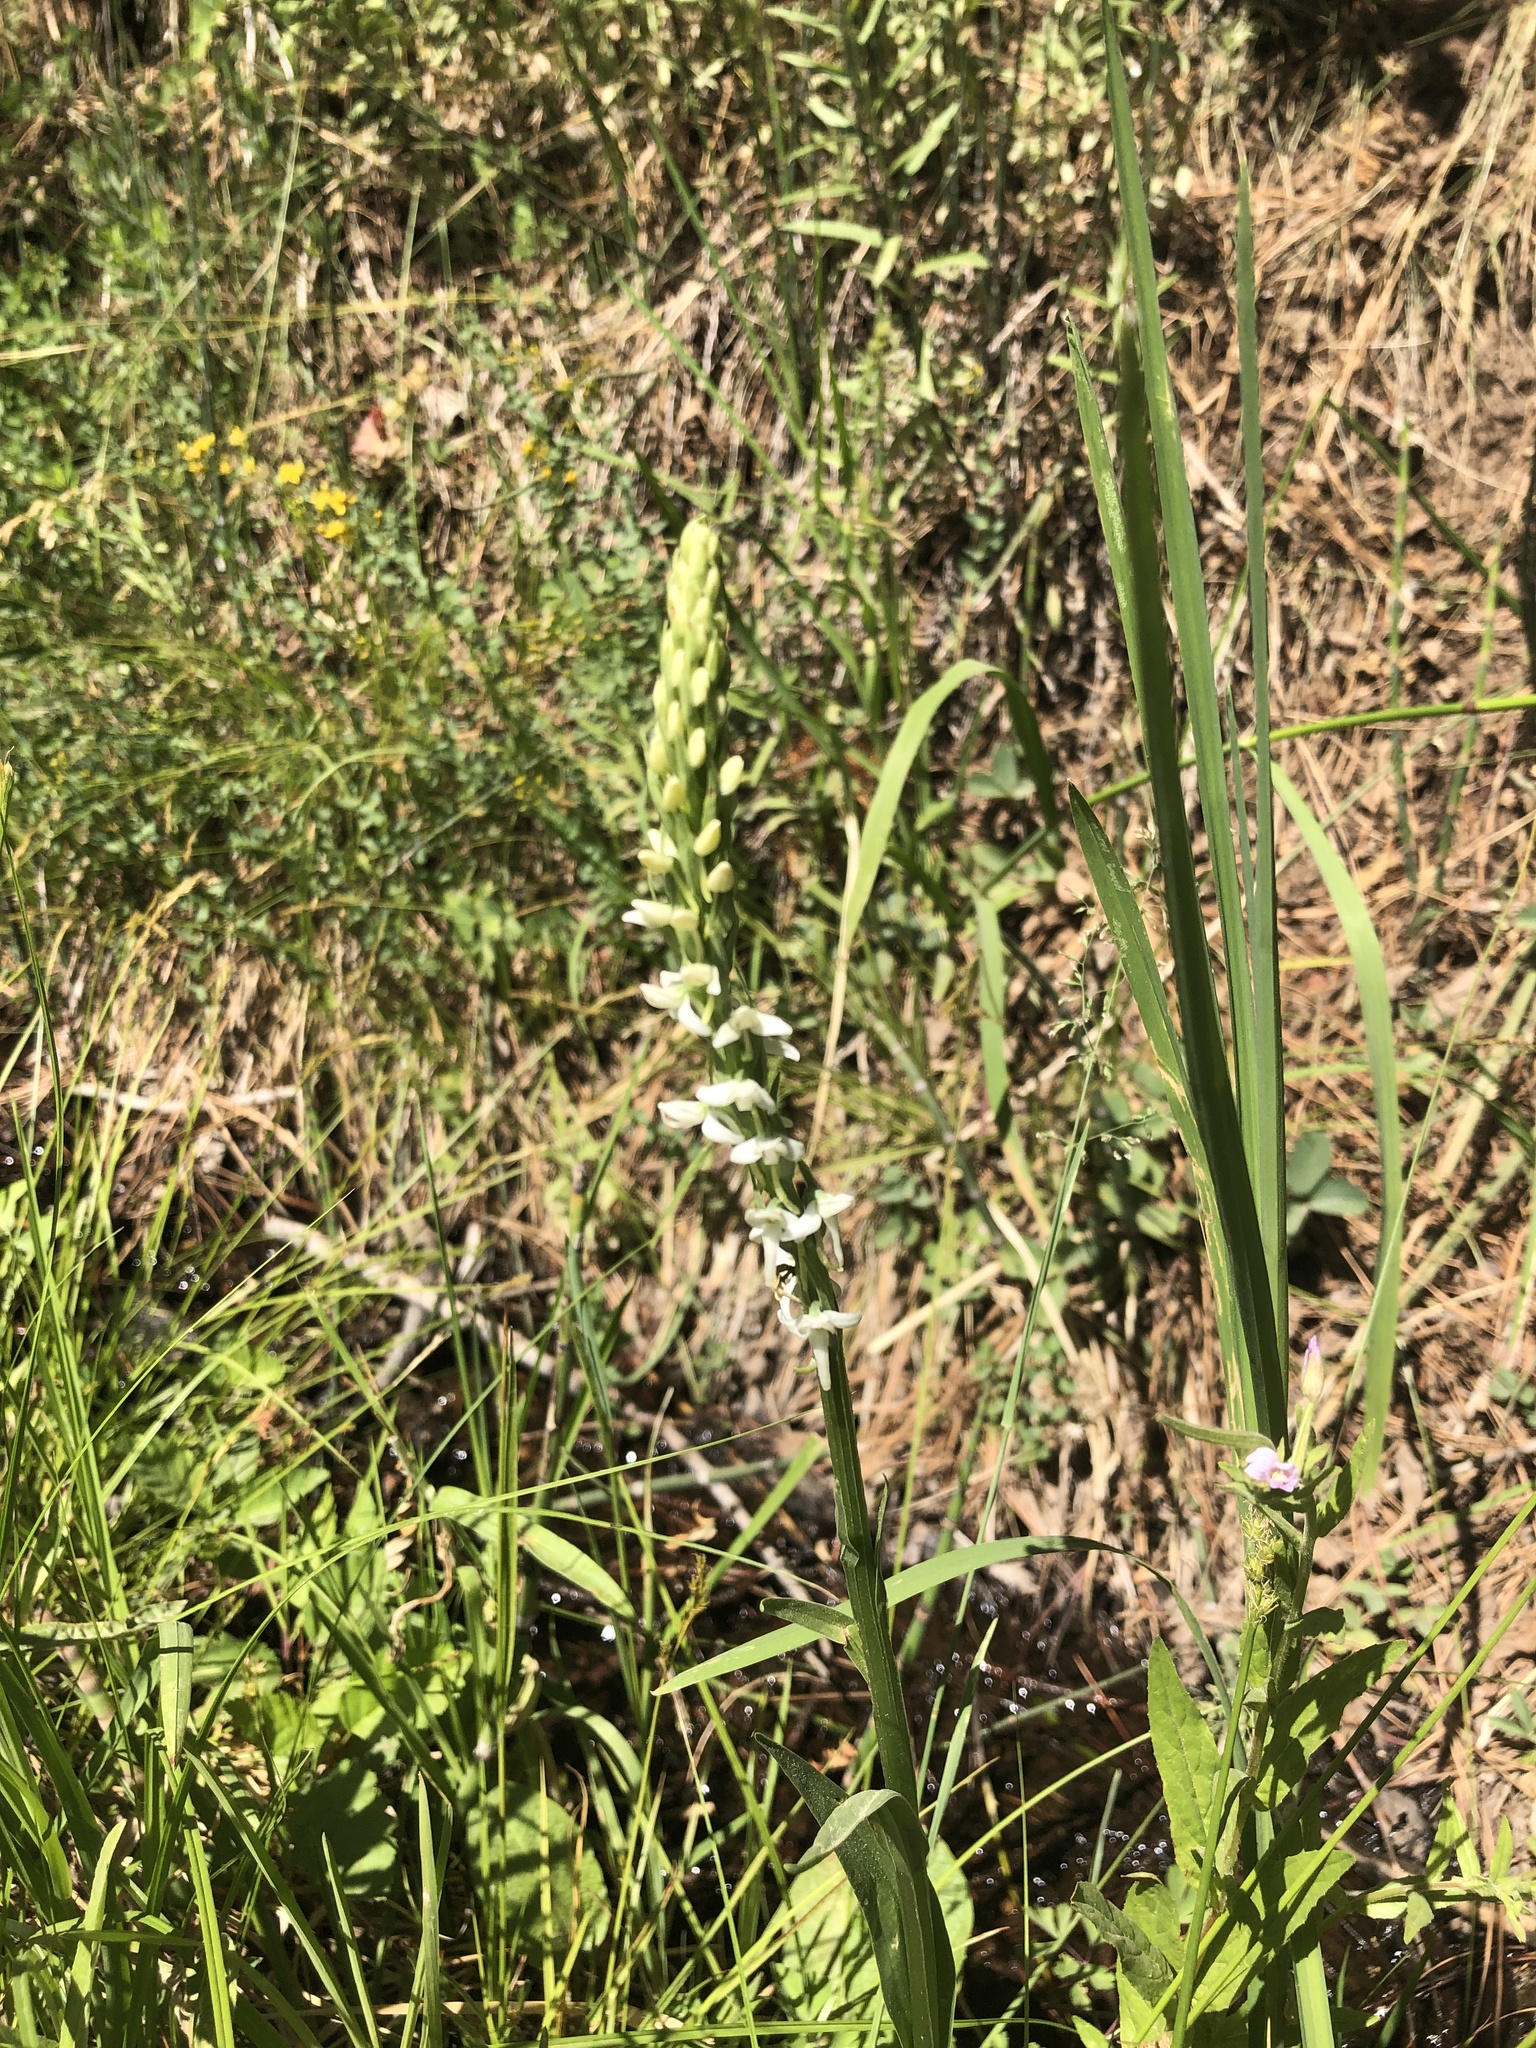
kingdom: Plantae
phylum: Tracheophyta
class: Liliopsida
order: Asparagales
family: Orchidaceae
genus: Platanthera
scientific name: Platanthera dilatata
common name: Bog candles
